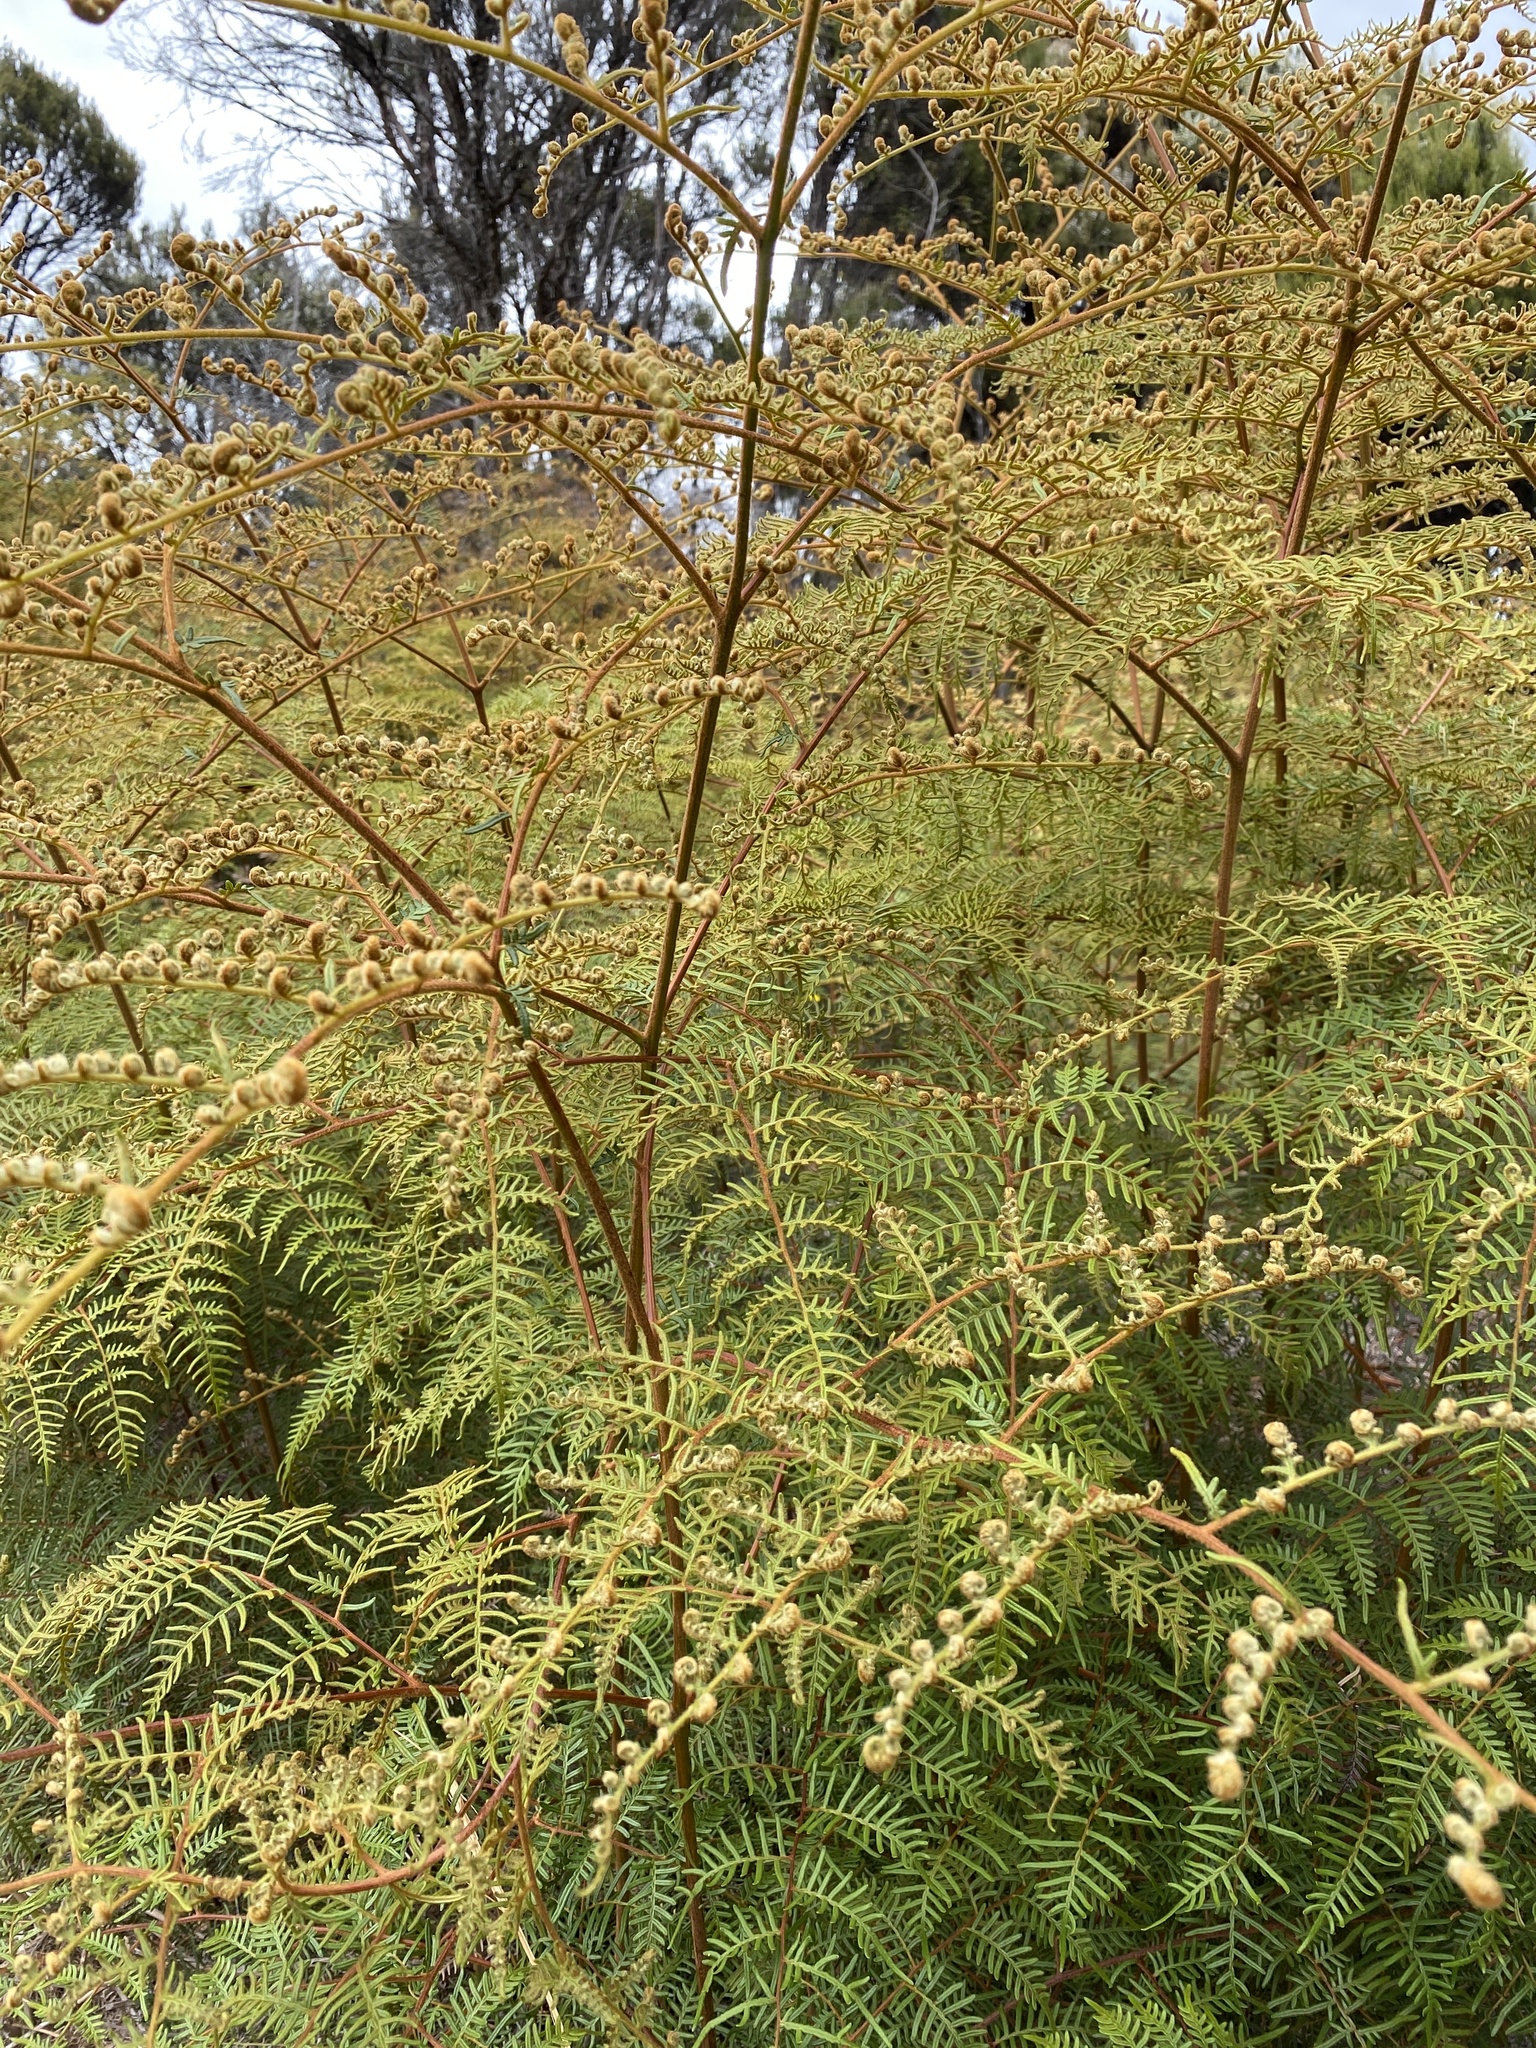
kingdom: Plantae
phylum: Tracheophyta
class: Polypodiopsida
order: Polypodiales
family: Dennstaedtiaceae
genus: Pteridium
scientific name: Pteridium esculentum
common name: Bracken fern
